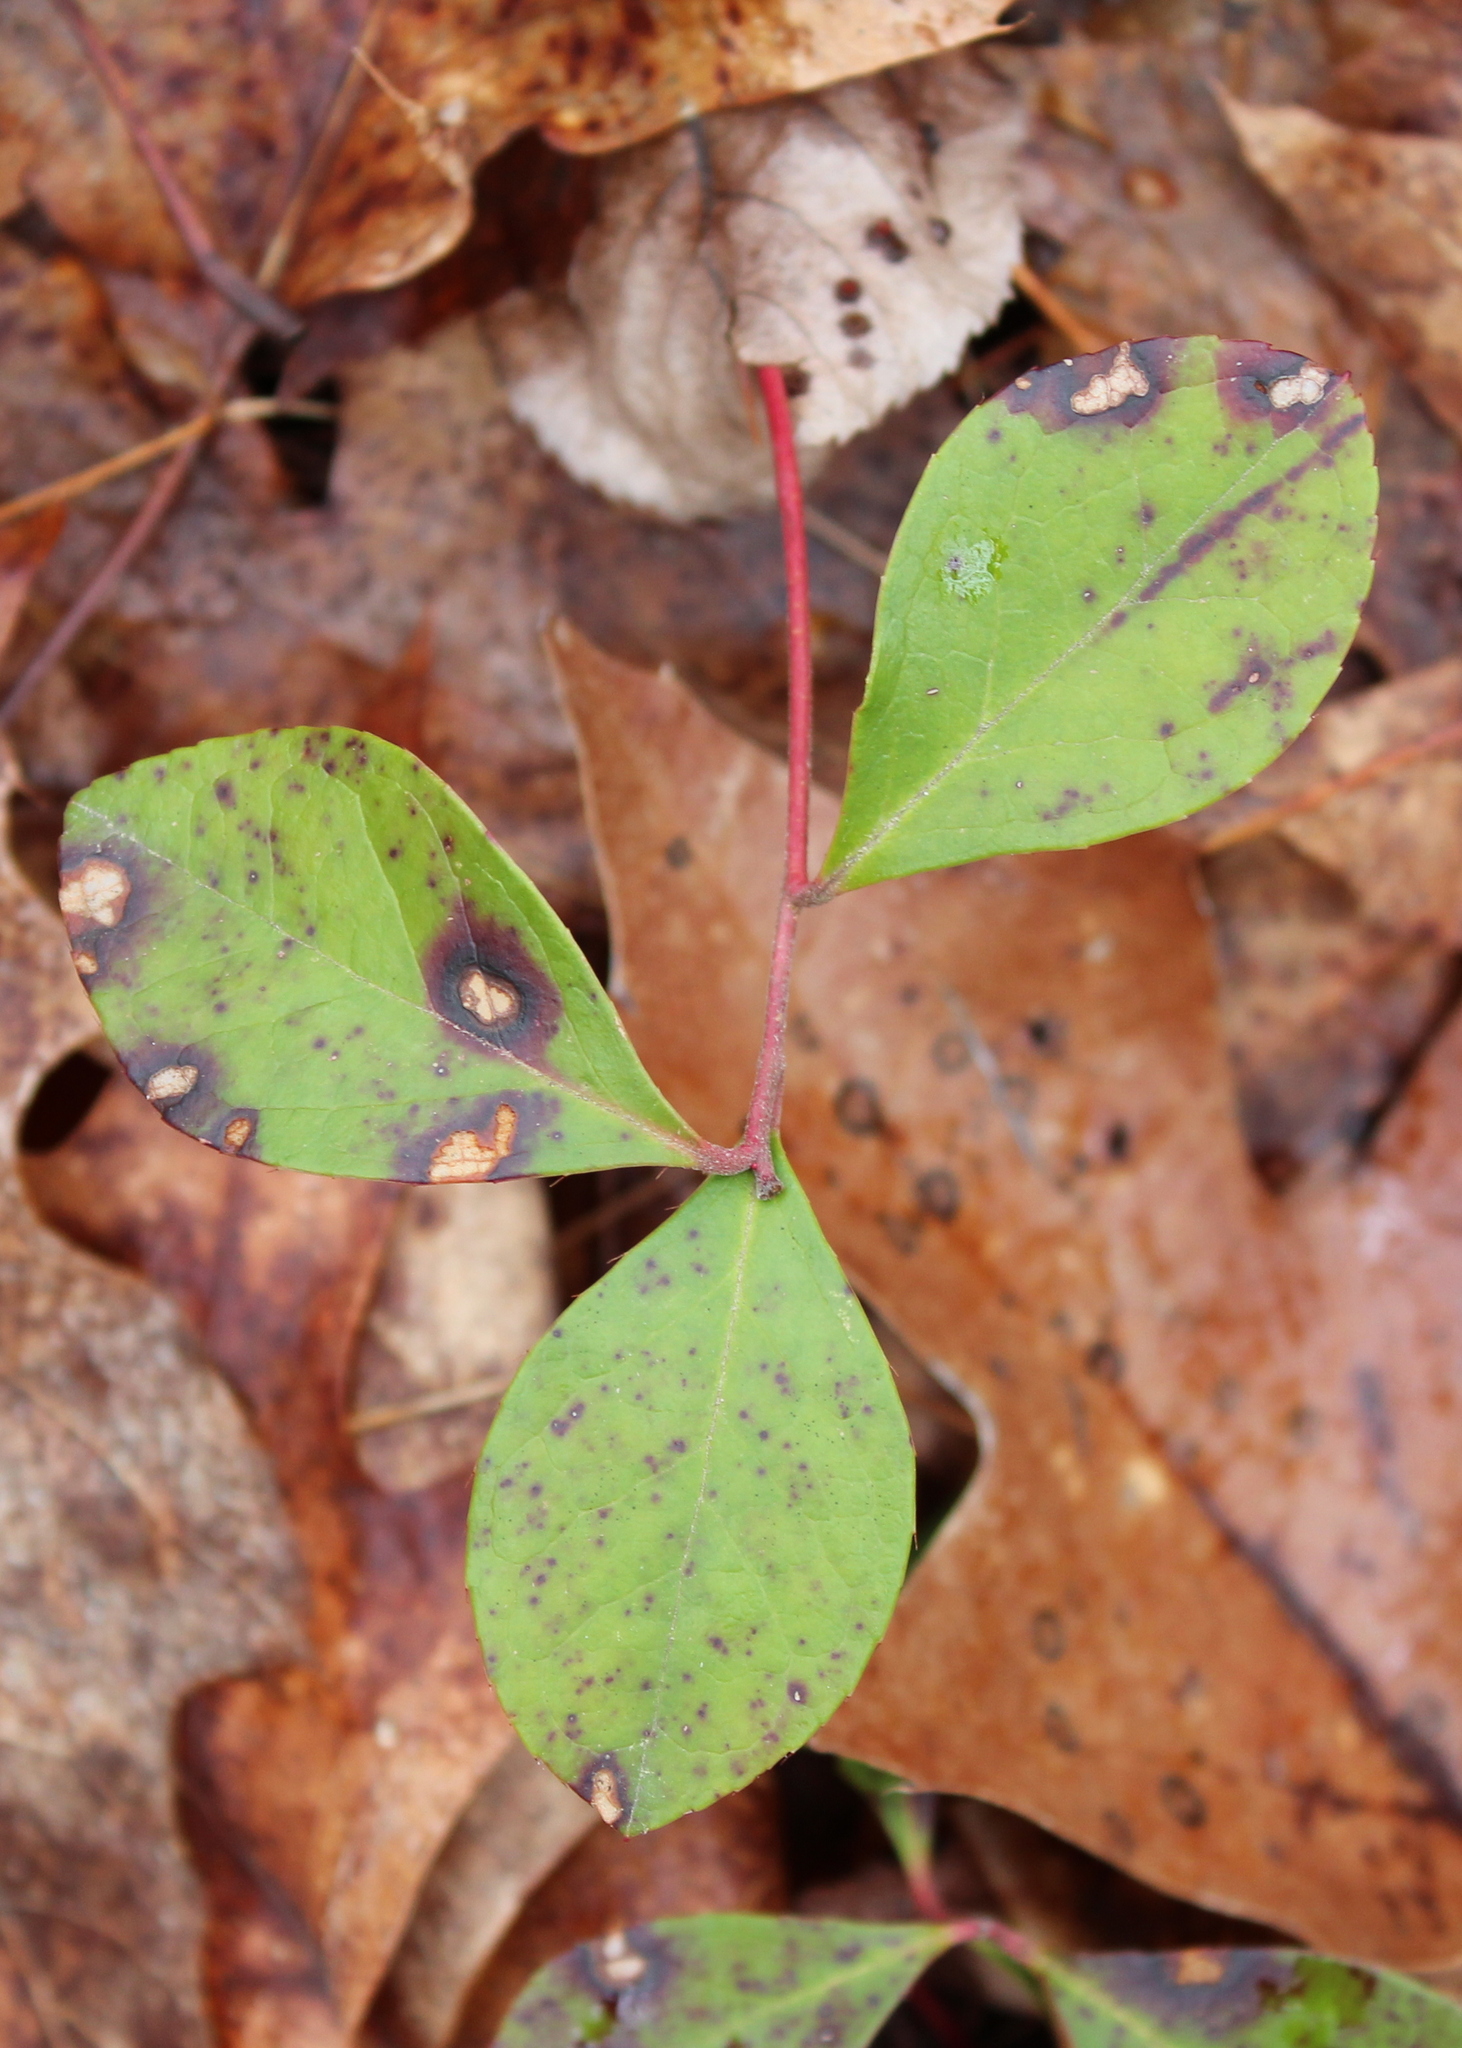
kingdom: Plantae
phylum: Tracheophyta
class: Magnoliopsida
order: Ericales
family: Ericaceae
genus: Gaultheria
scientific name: Gaultheria procumbens
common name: Checkerberry
